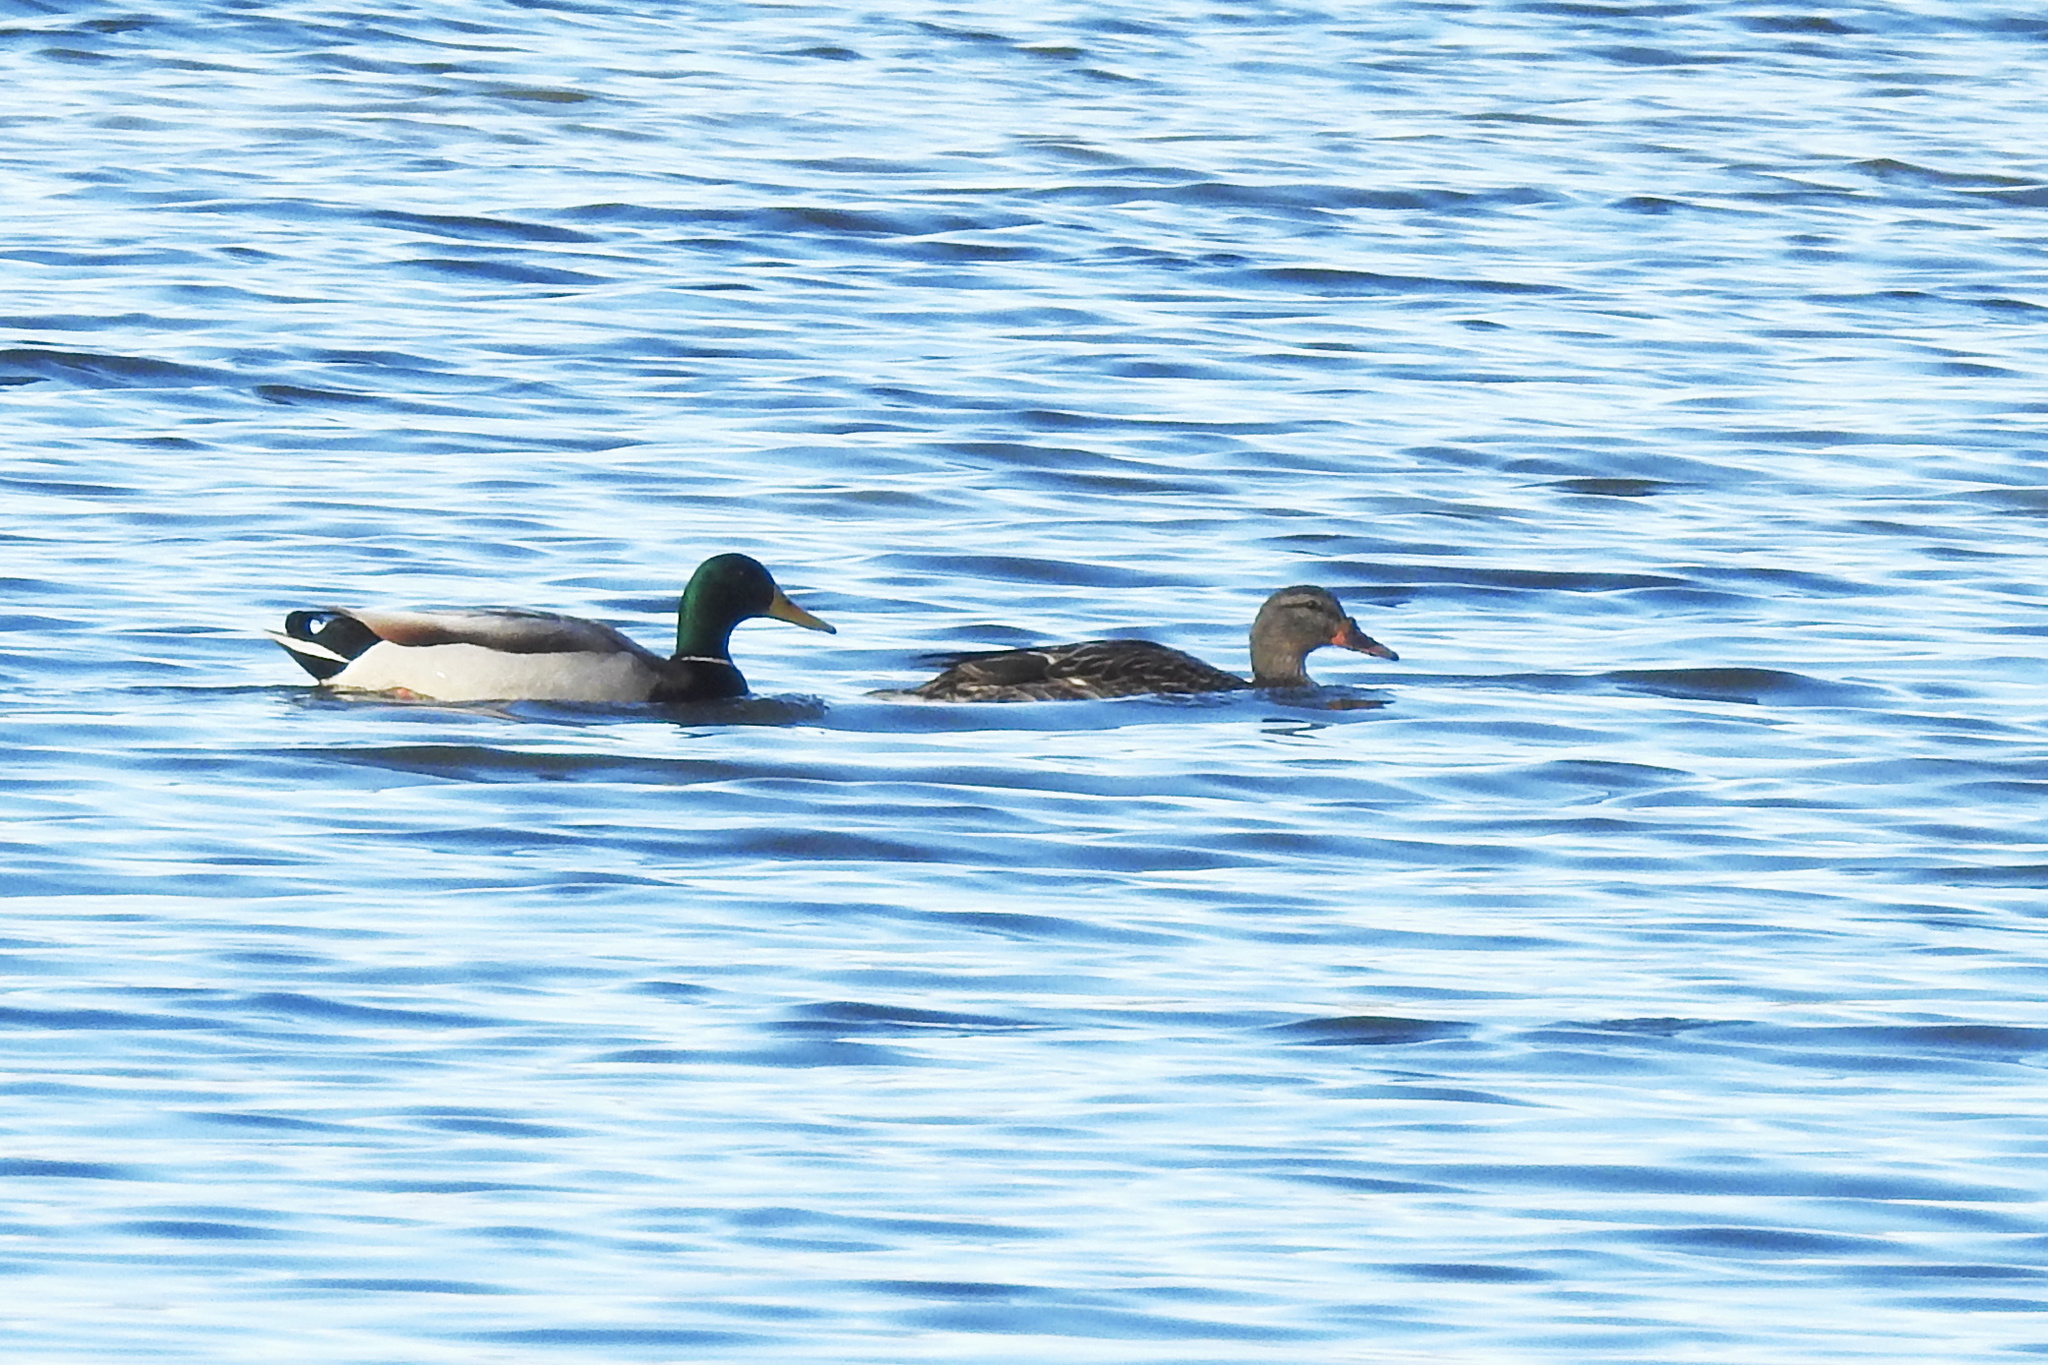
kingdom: Animalia
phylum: Chordata
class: Aves
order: Anseriformes
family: Anatidae
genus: Anas
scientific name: Anas platyrhynchos
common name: Mallard
